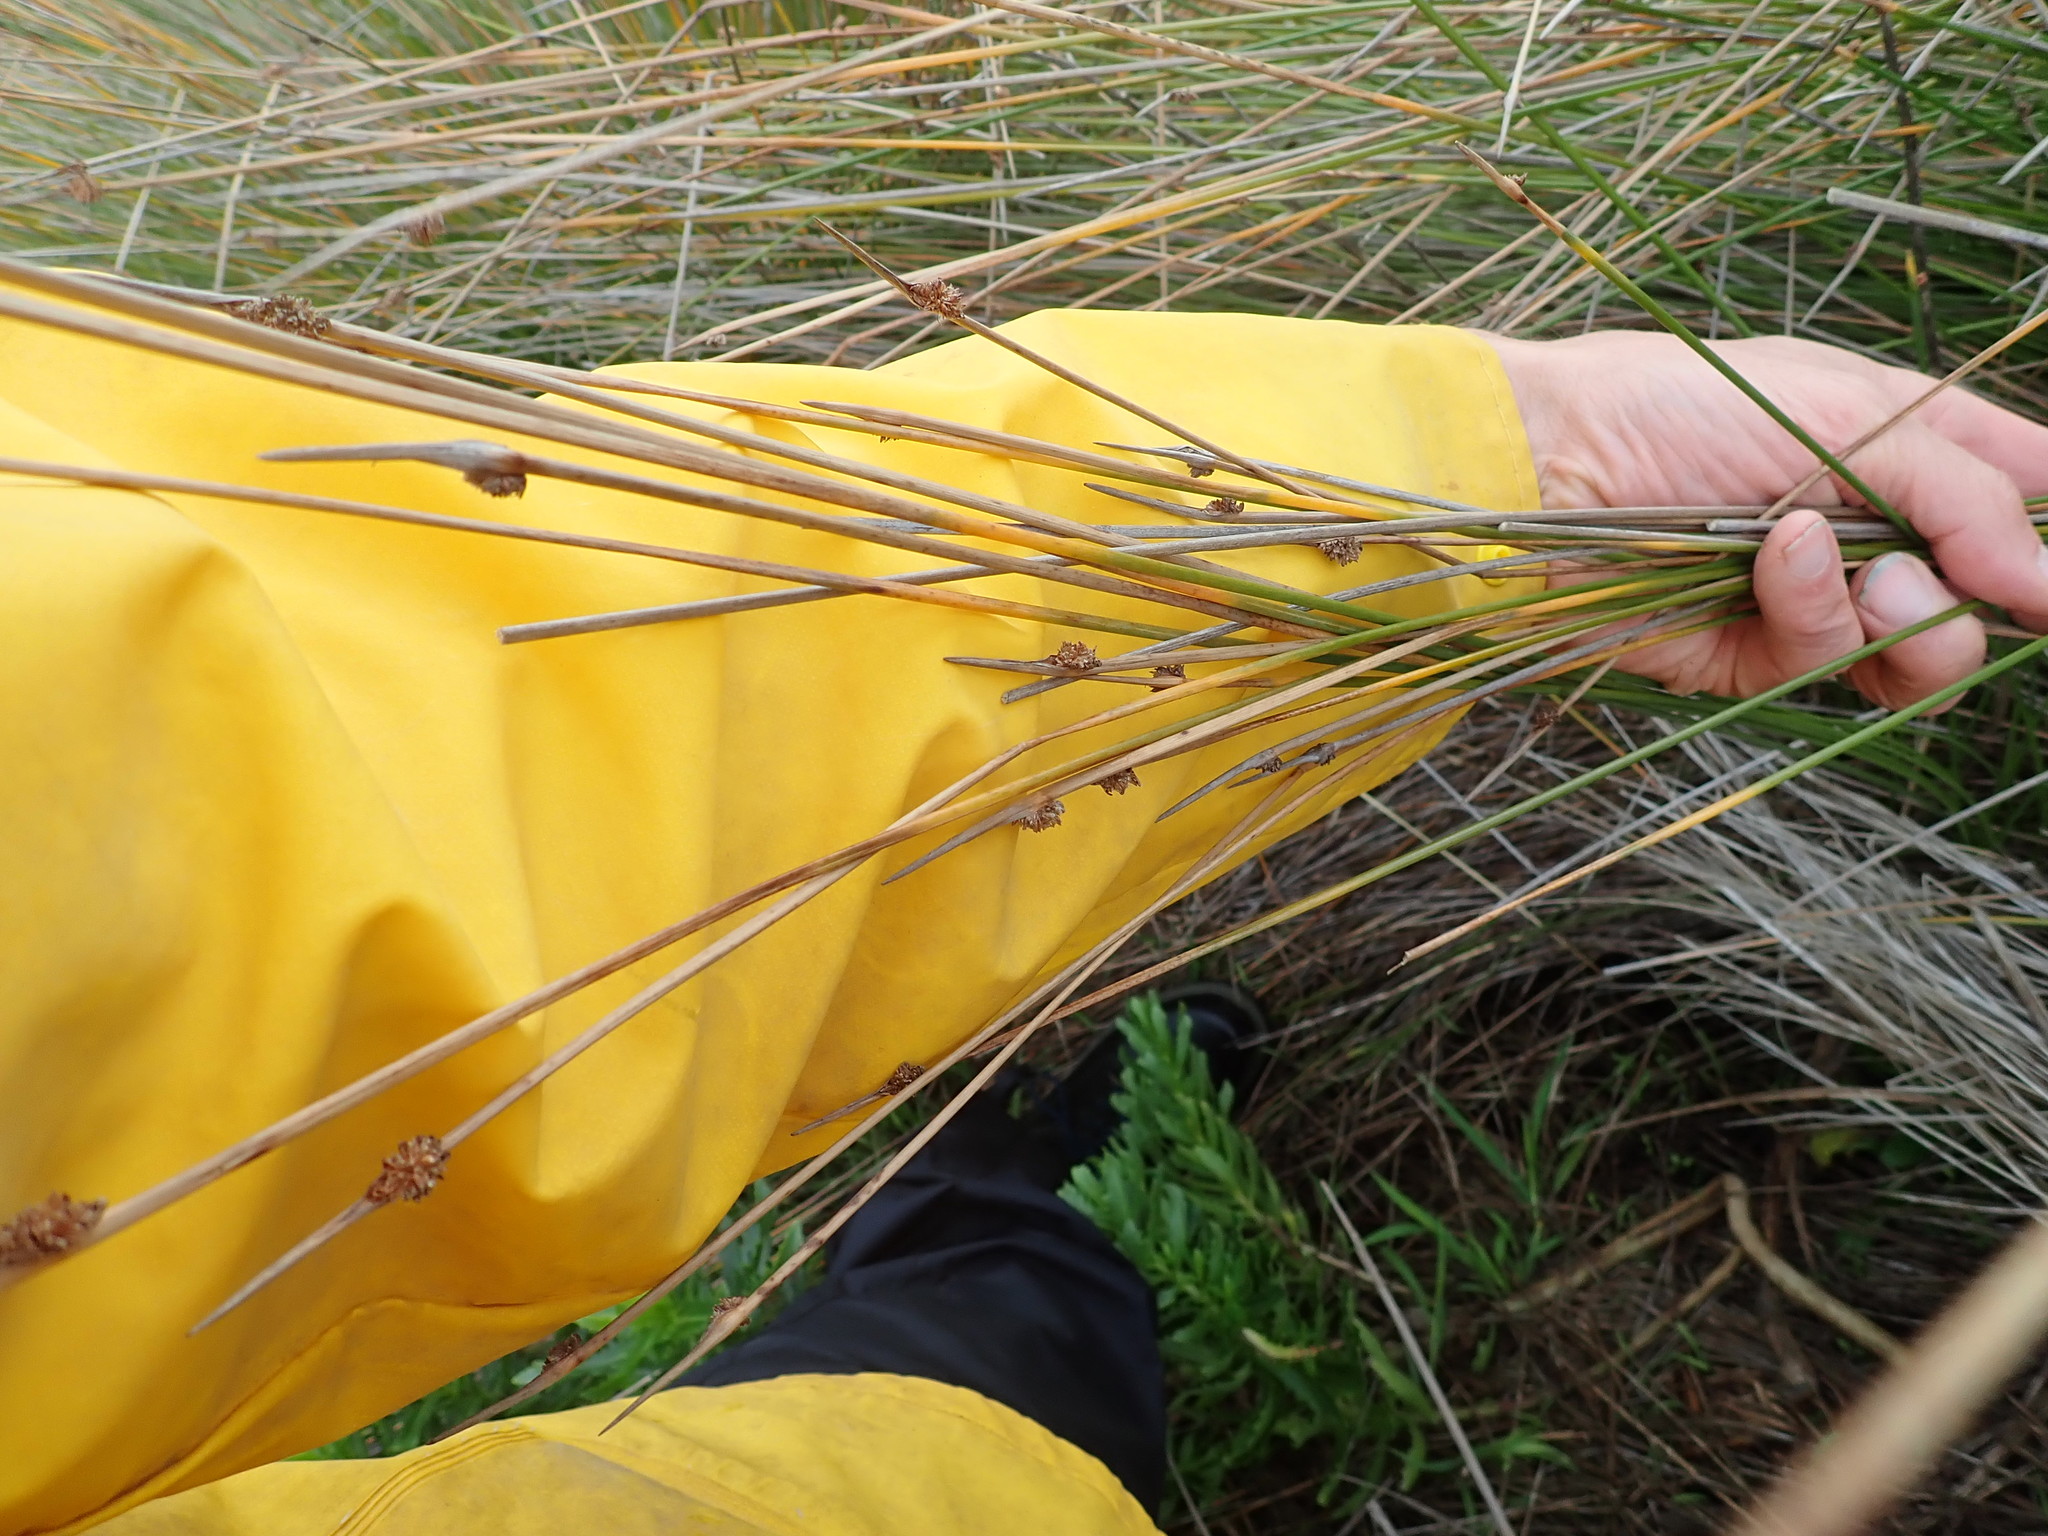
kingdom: Plantae
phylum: Tracheophyta
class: Liliopsida
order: Poales
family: Cyperaceae
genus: Ficinia
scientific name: Ficinia nodosa
